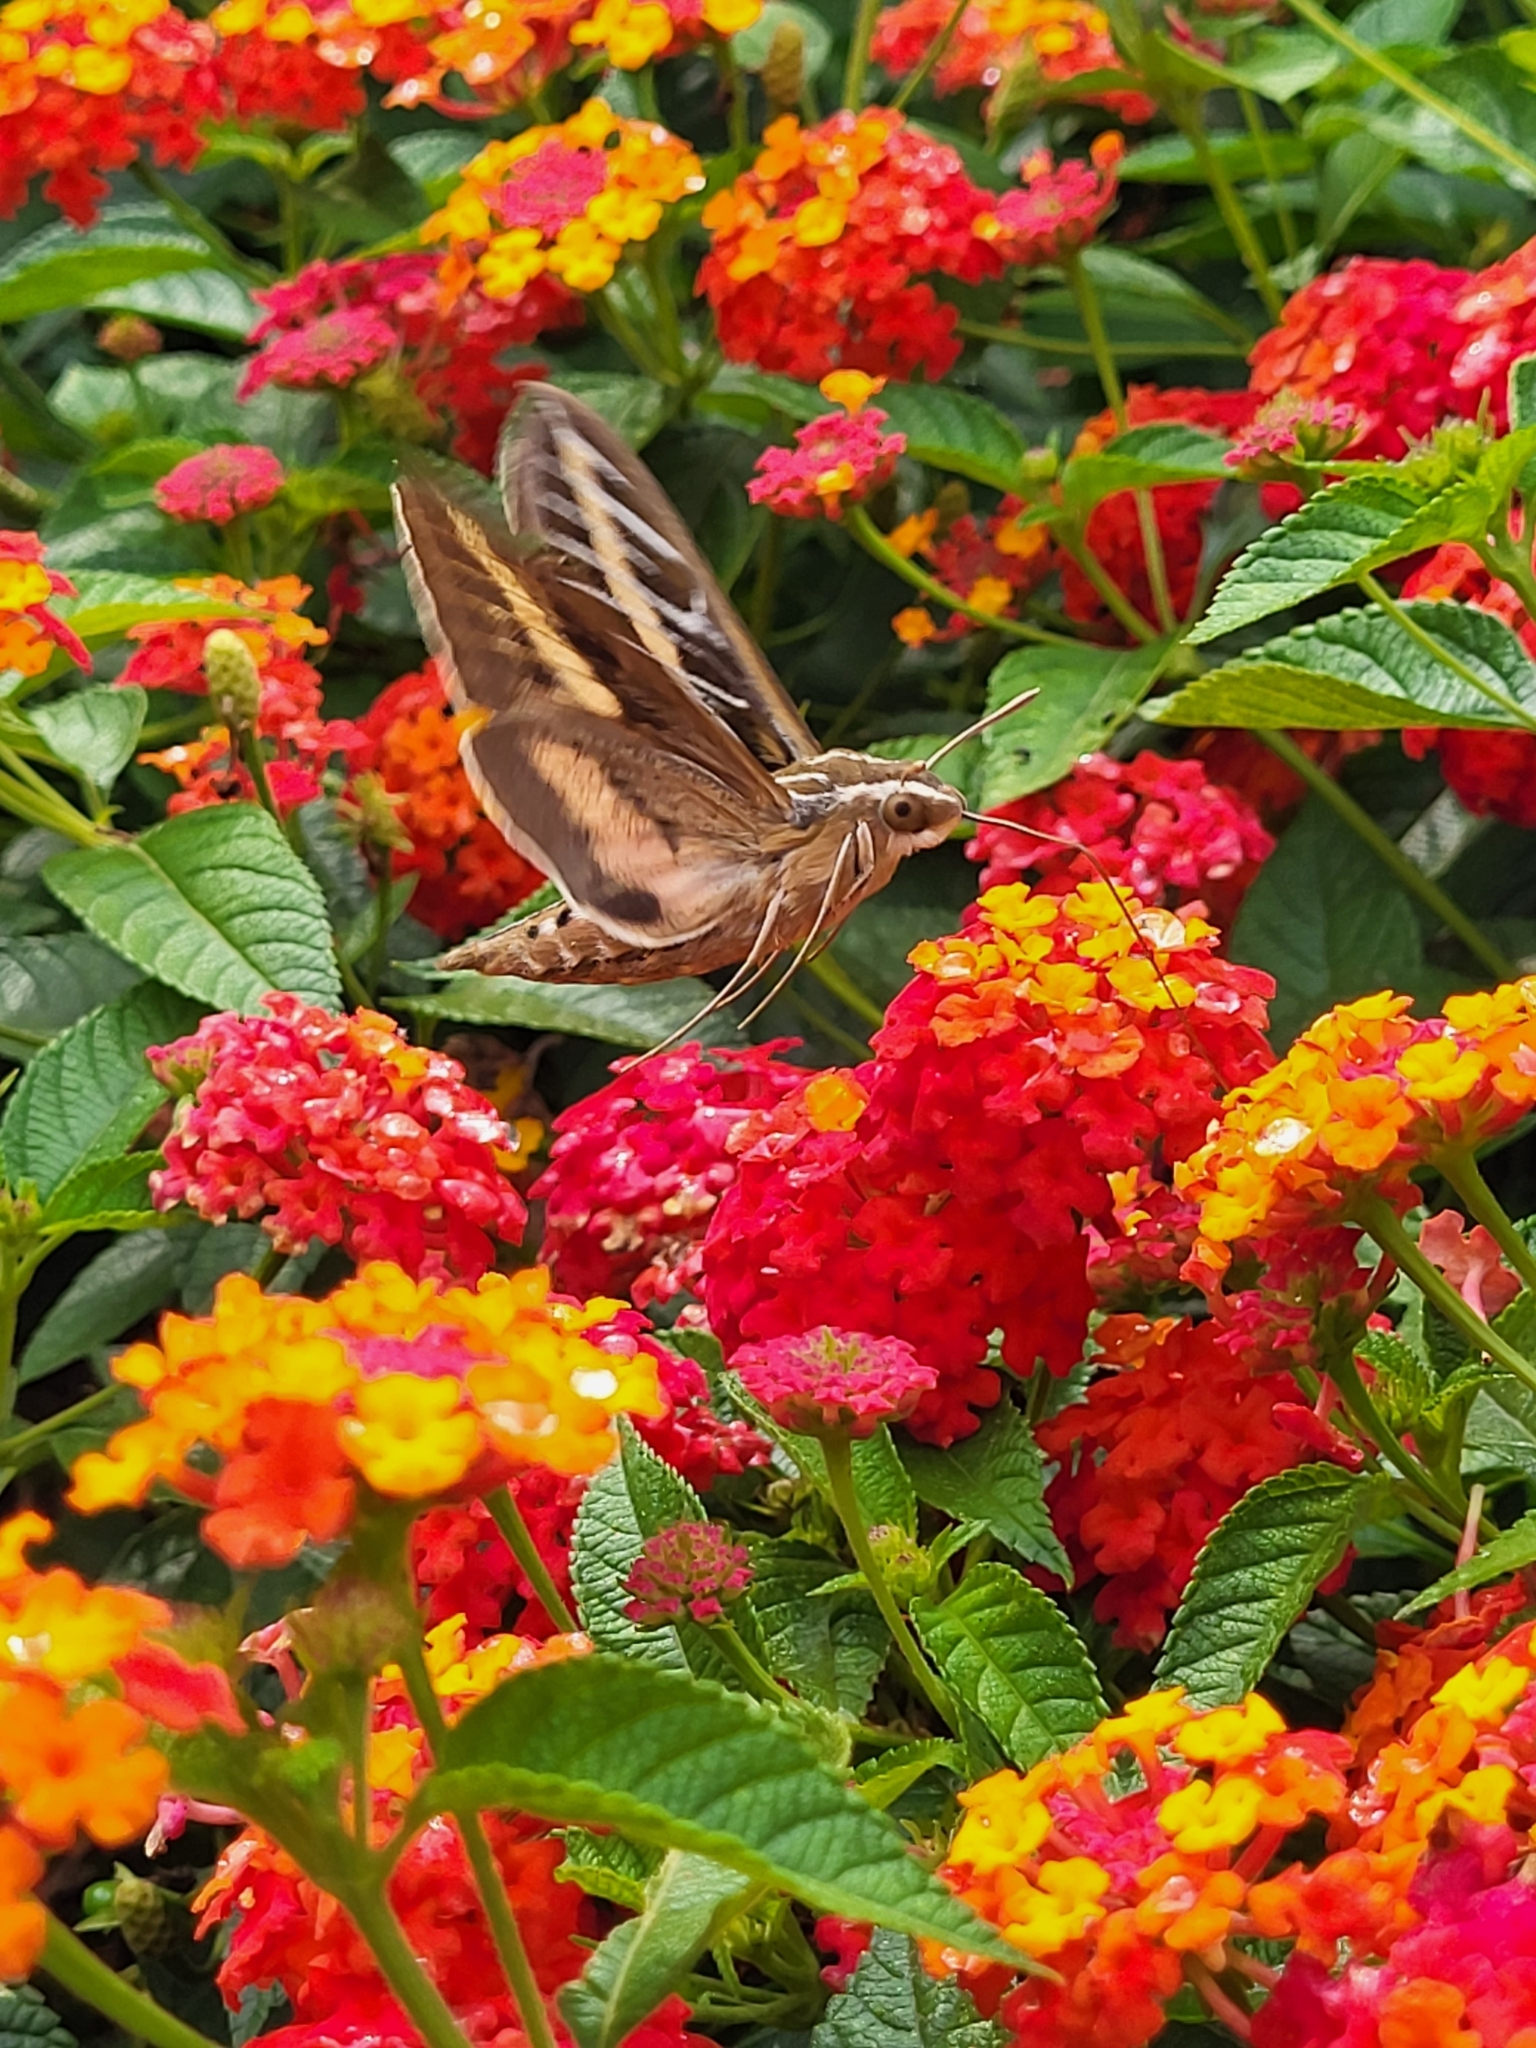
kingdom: Animalia
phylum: Arthropoda
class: Insecta
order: Lepidoptera
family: Sphingidae
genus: Hyles
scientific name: Hyles lineata
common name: White-lined sphinx
